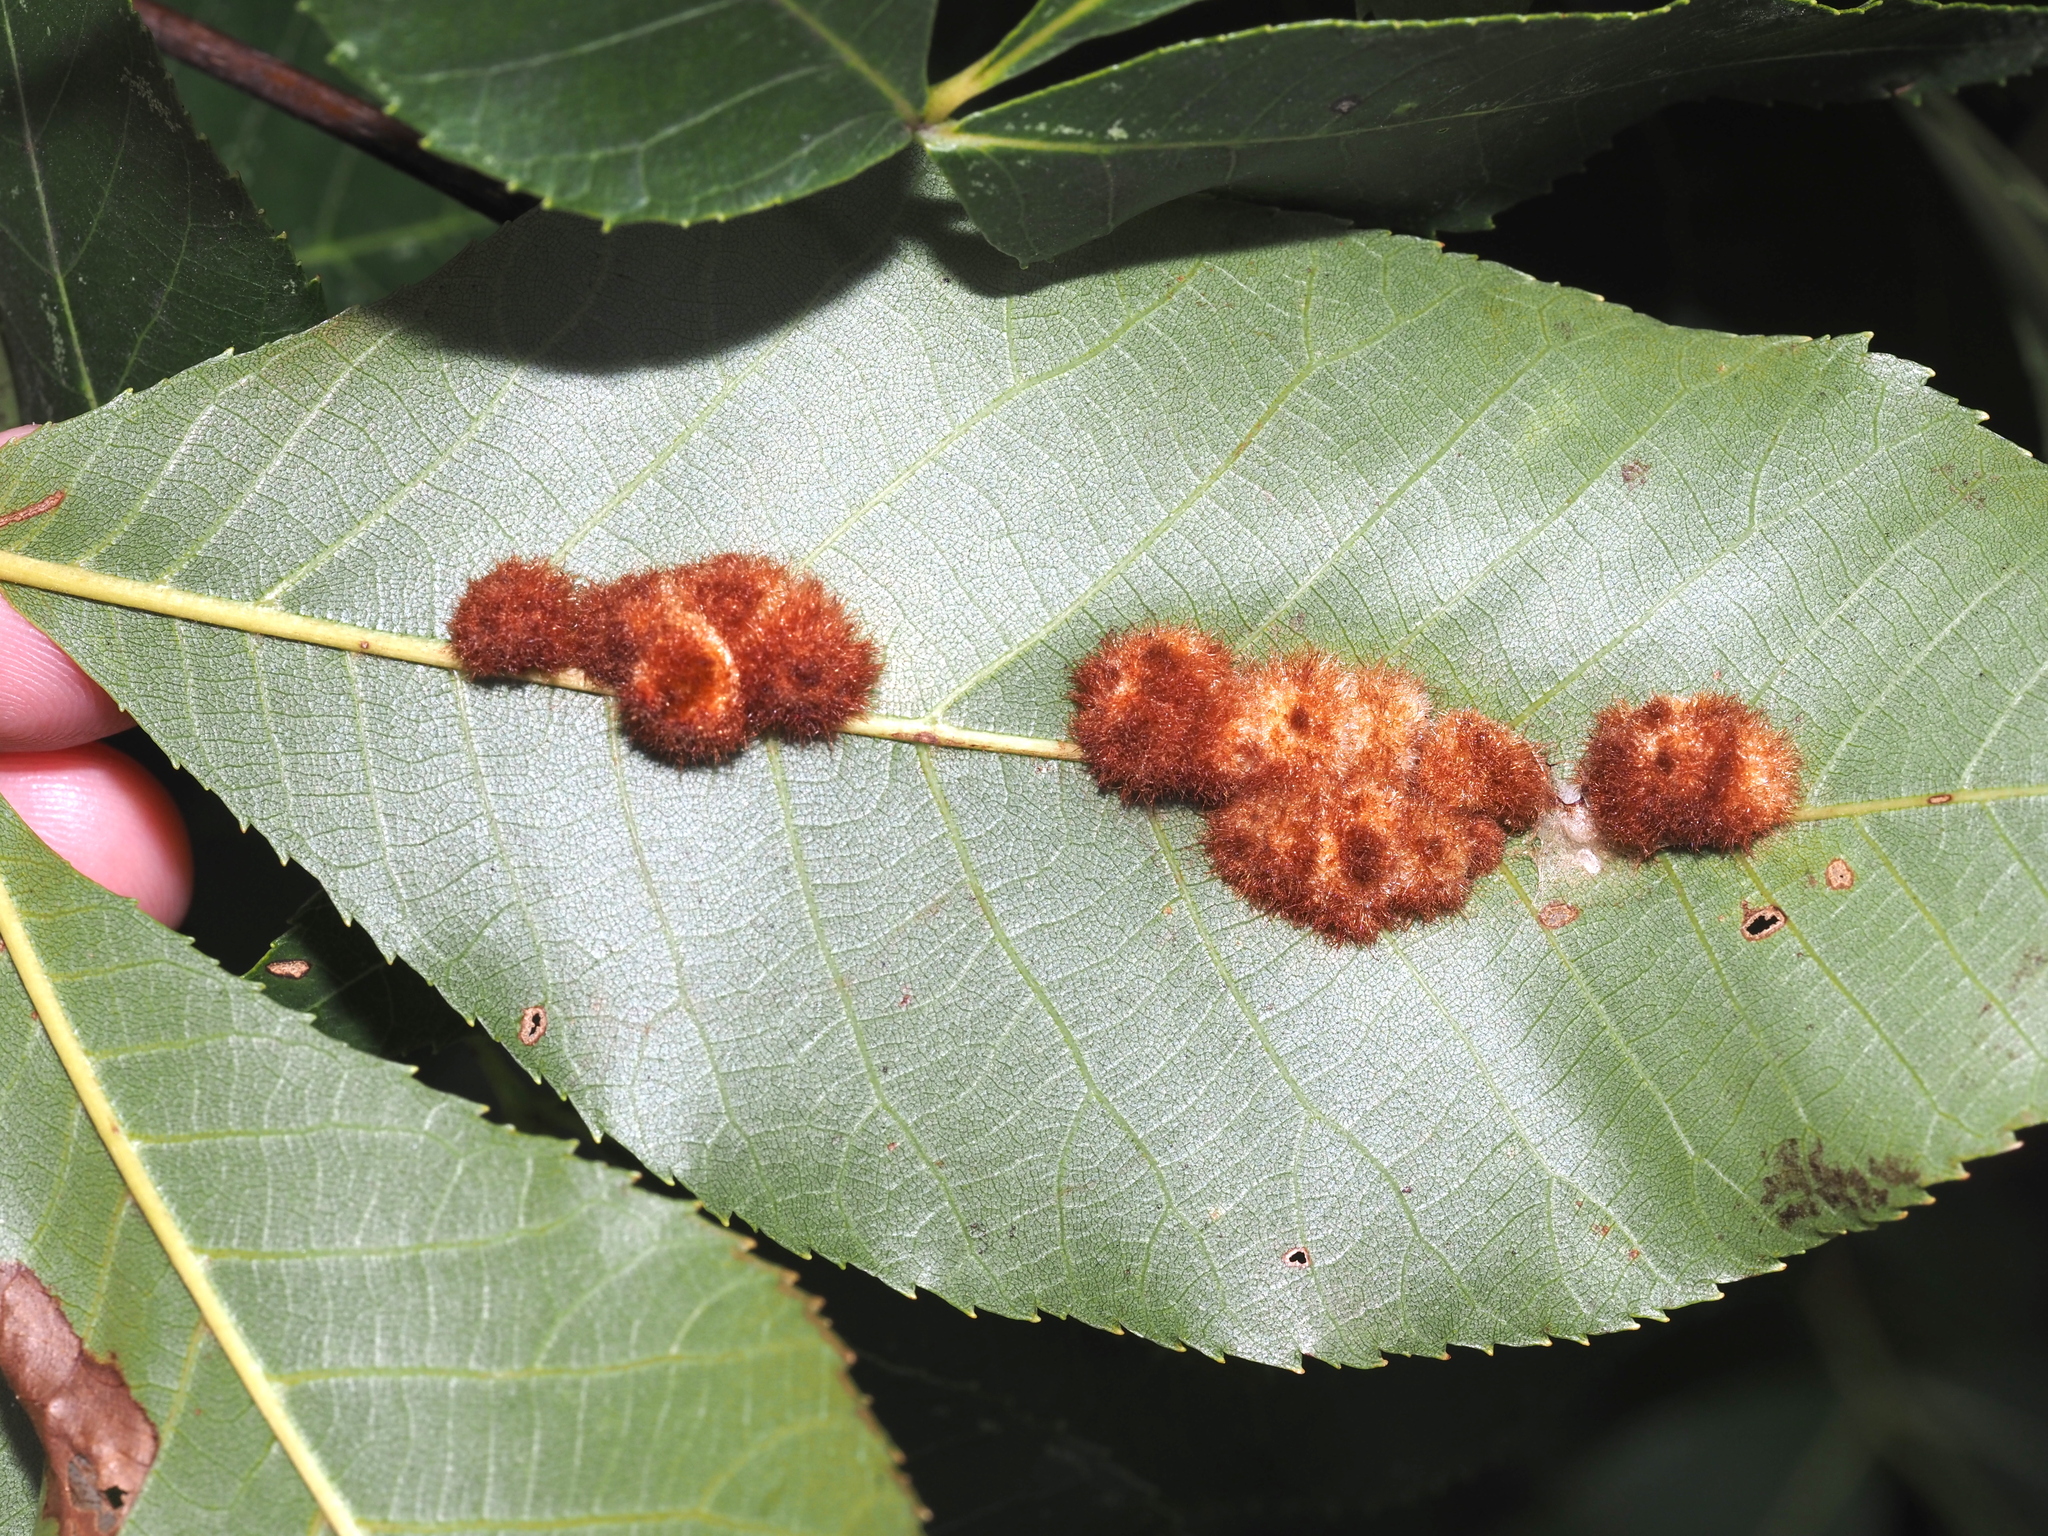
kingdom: Animalia
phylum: Arthropoda
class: Insecta
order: Diptera
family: Cecidomyiidae
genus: Caryomyia
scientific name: Caryomyia aggregata
